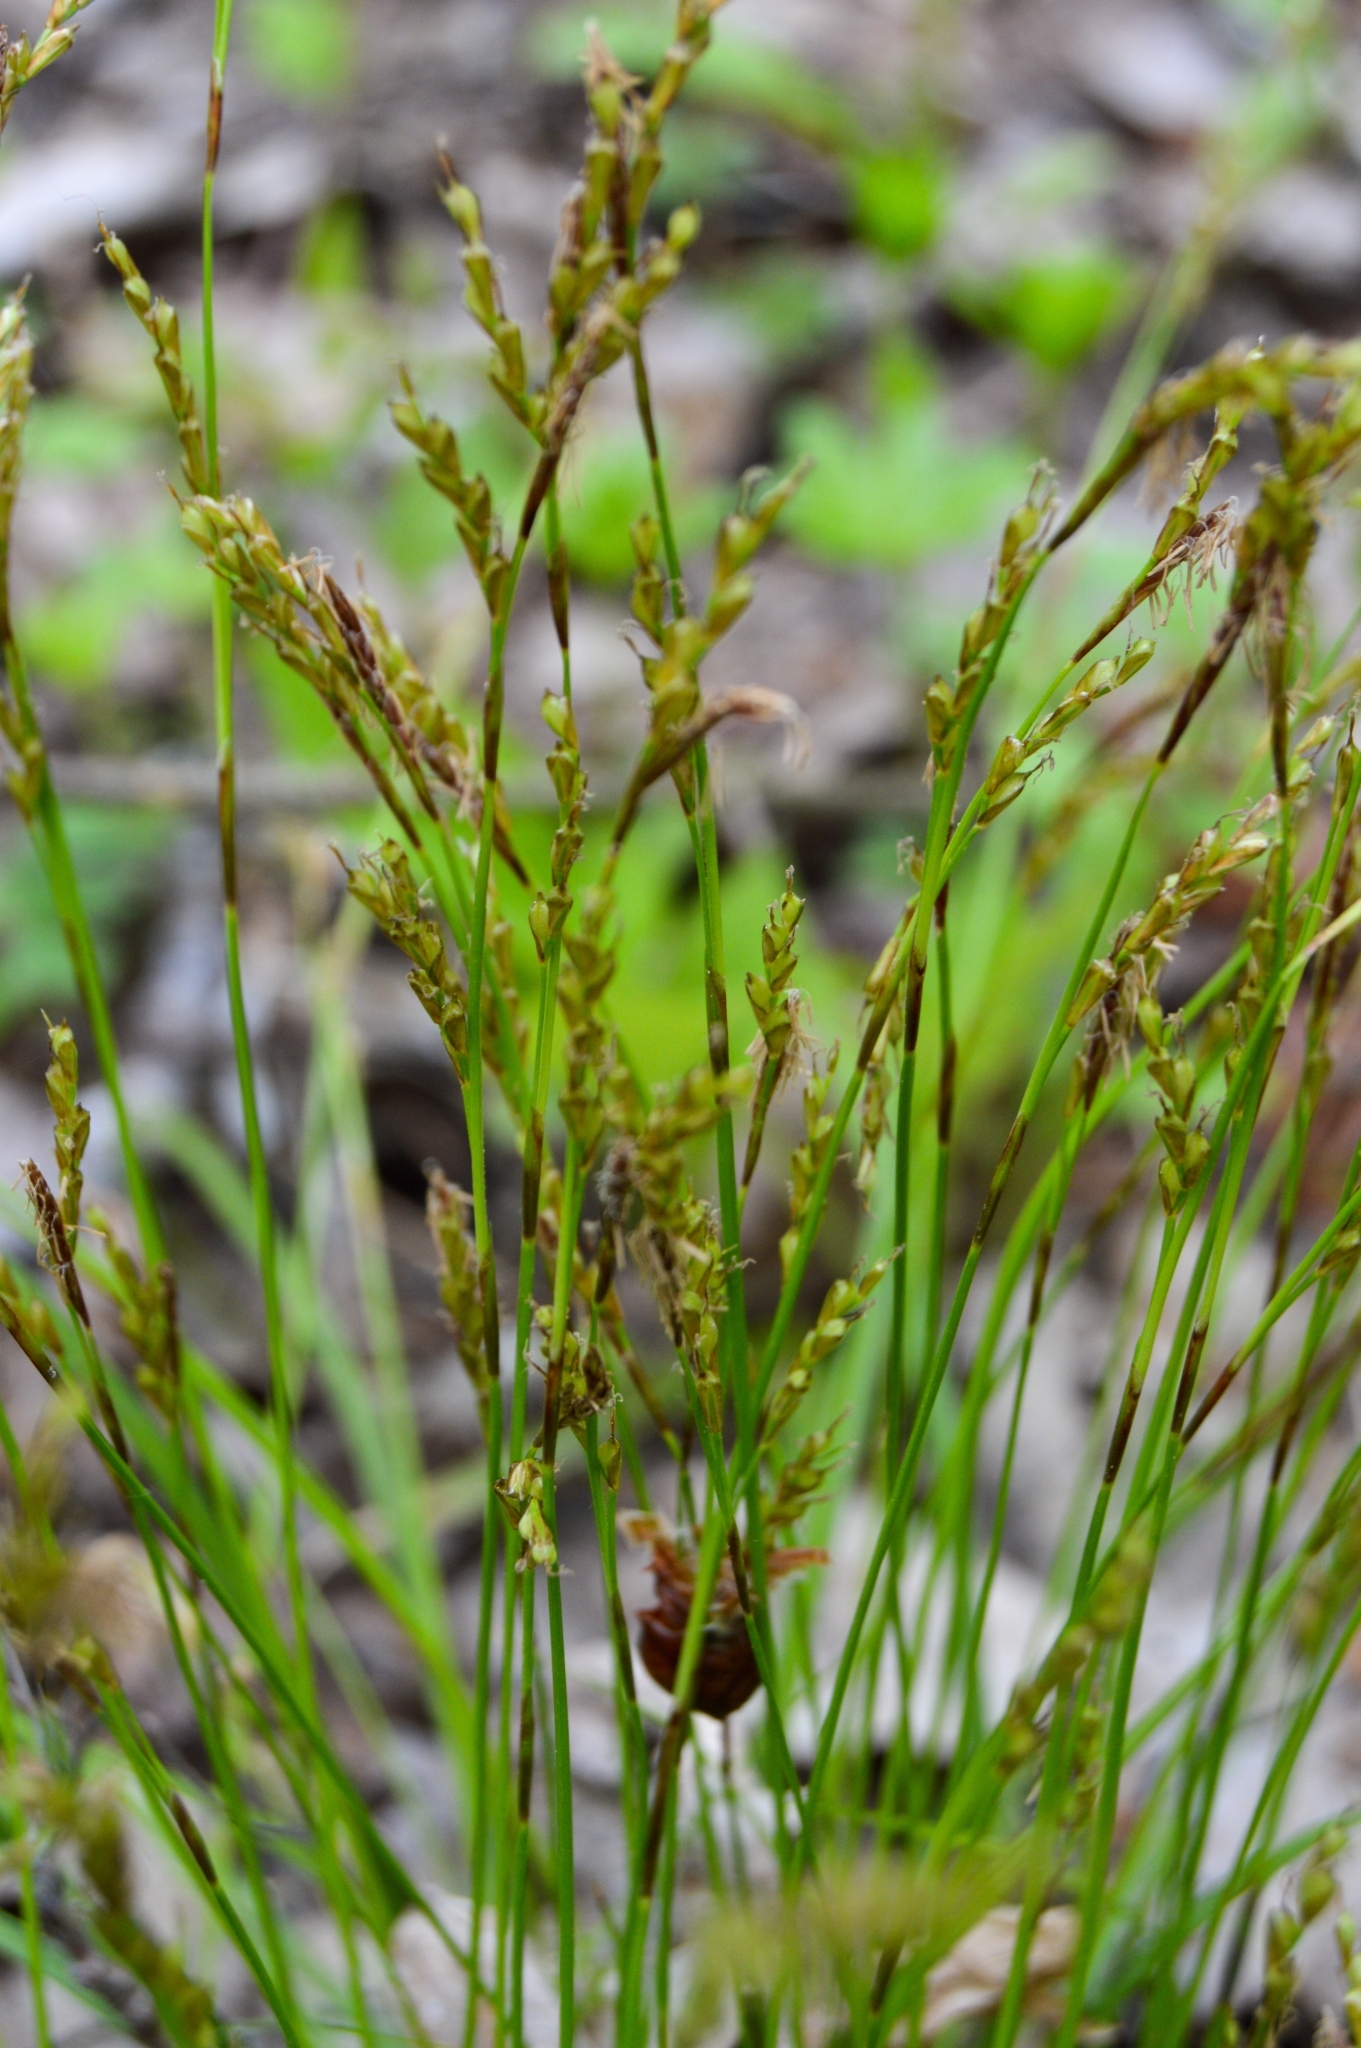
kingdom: Plantae
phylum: Tracheophyta
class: Liliopsida
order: Poales
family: Cyperaceae
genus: Carex
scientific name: Carex digitata
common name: Fingered sedge
